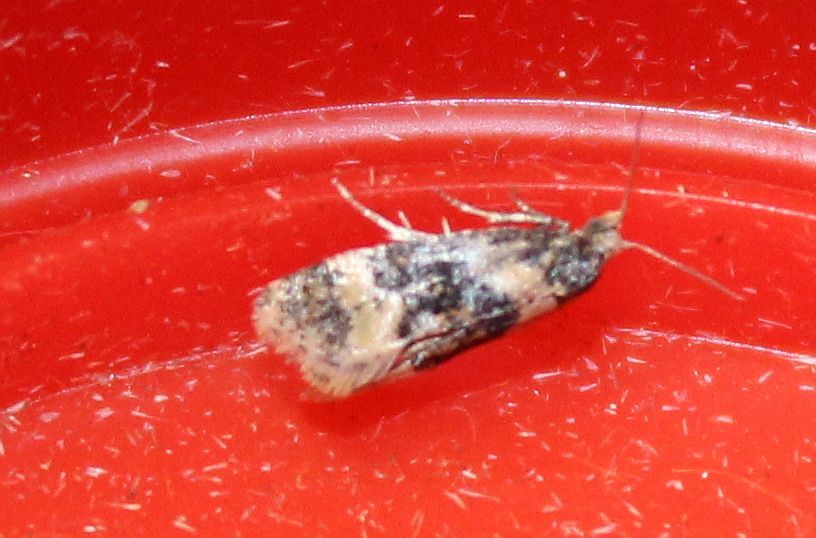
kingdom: Animalia
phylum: Arthropoda
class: Insecta
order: Lepidoptera
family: Tortricidae
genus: Thyraylia
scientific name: Thyraylia nana
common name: Birch conch
